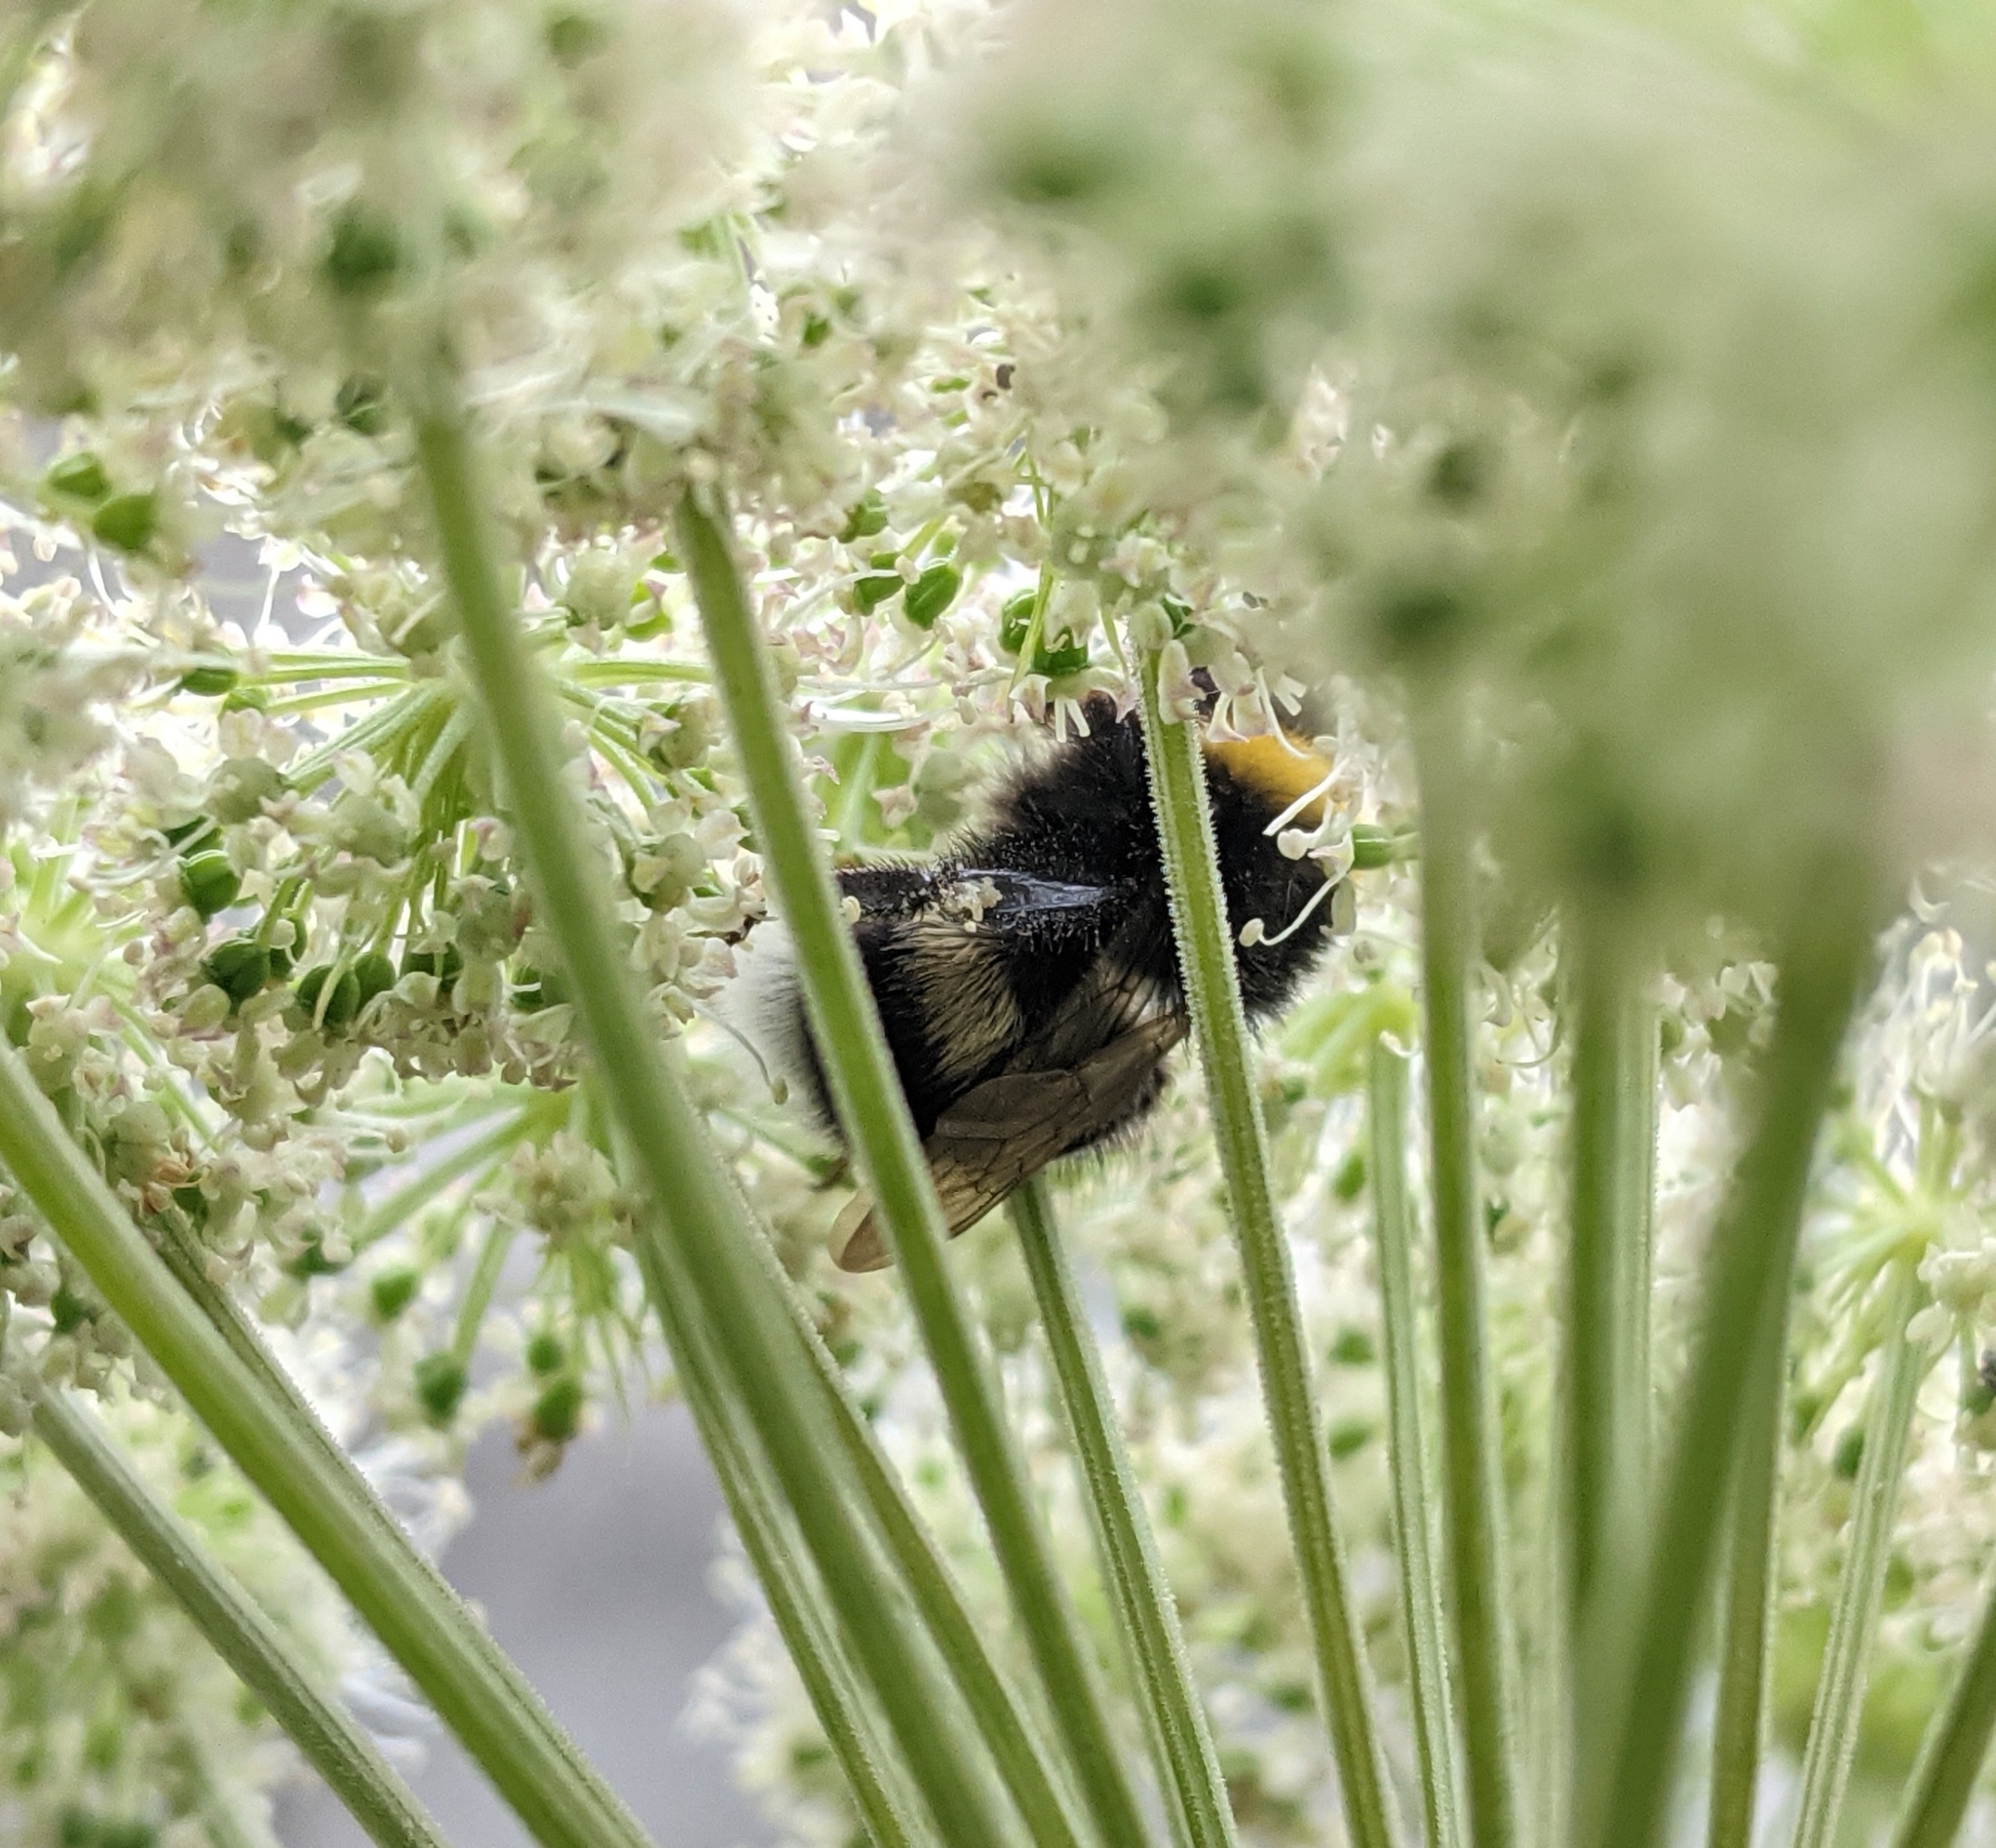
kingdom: Animalia
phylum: Arthropoda
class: Insecta
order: Hymenoptera
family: Apidae
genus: Bombus
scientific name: Bombus
